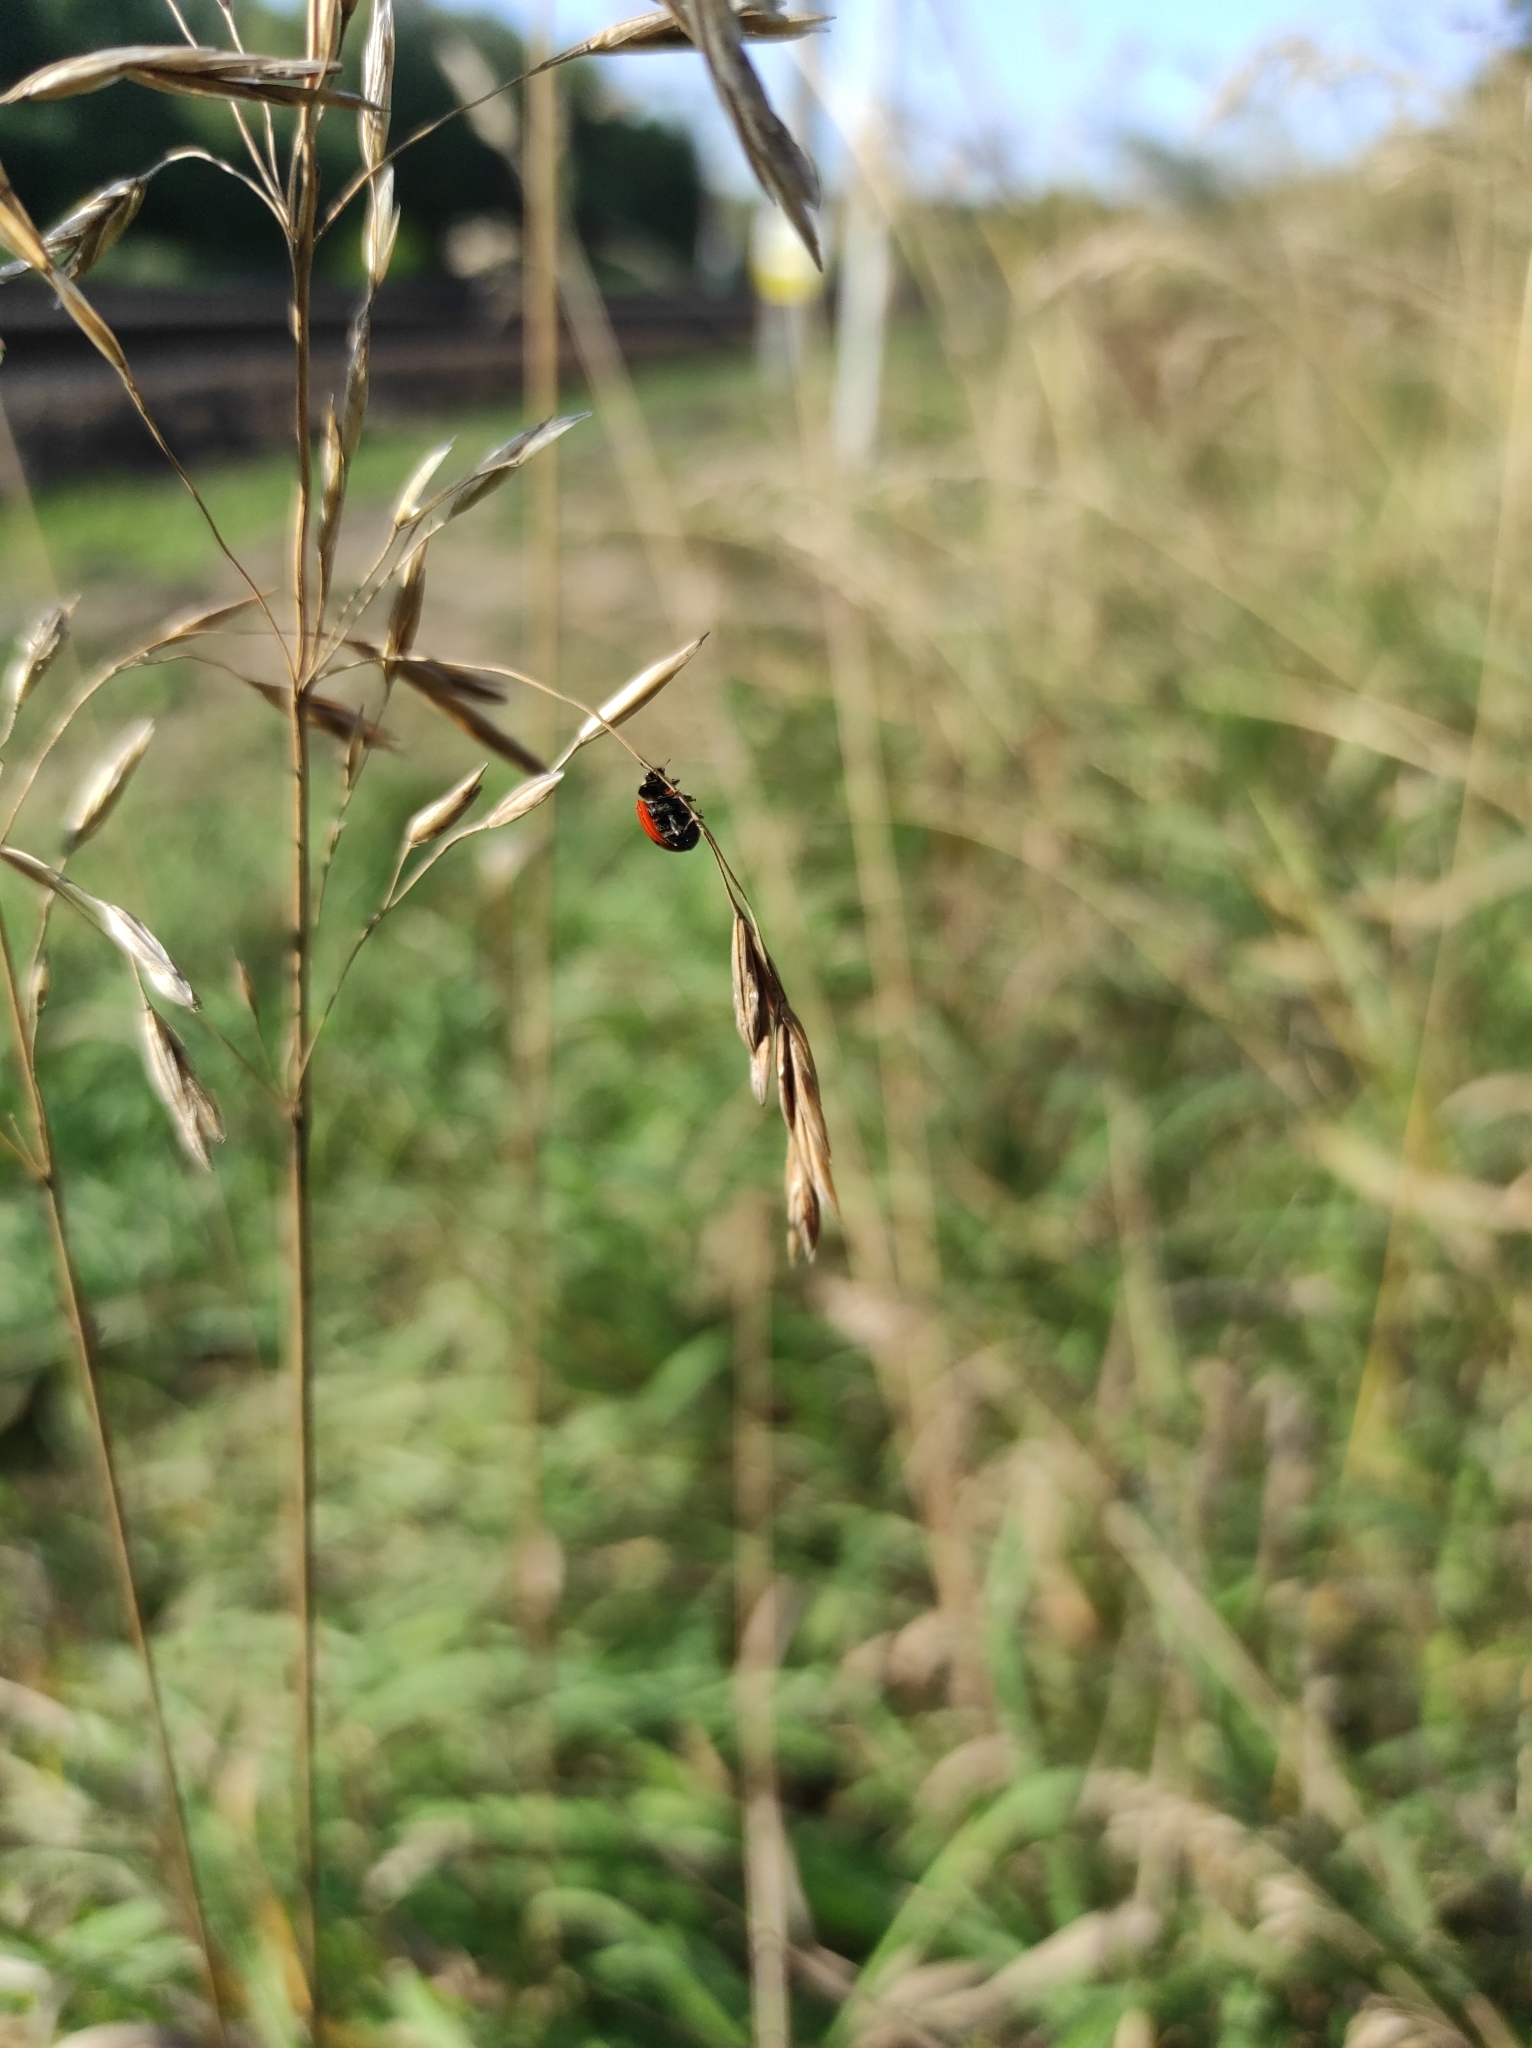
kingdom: Plantae
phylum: Tracheophyta
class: Liliopsida
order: Poales
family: Poaceae
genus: Bromus
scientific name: Bromus inermis
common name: Smooth brome
